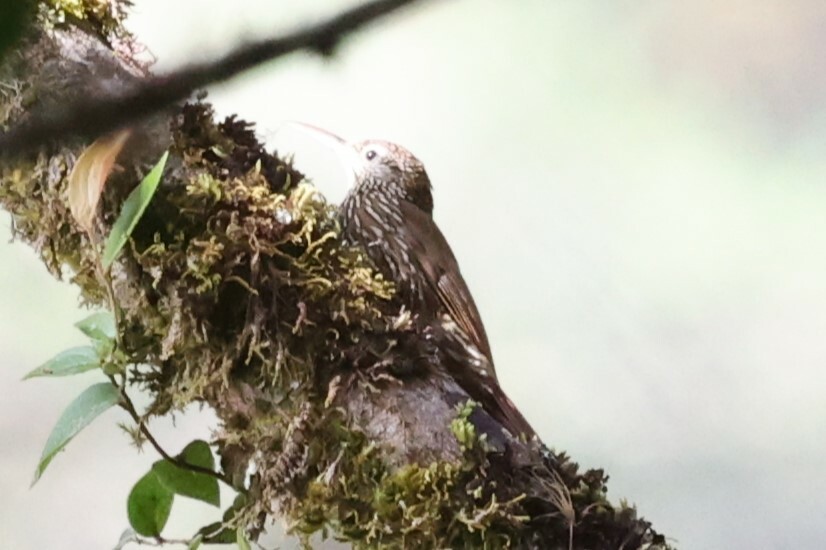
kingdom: Animalia
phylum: Chordata
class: Aves
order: Passeriformes
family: Furnariidae
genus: Lepidocolaptes
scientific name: Lepidocolaptes lacrymiger
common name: Montane woodcreeper
